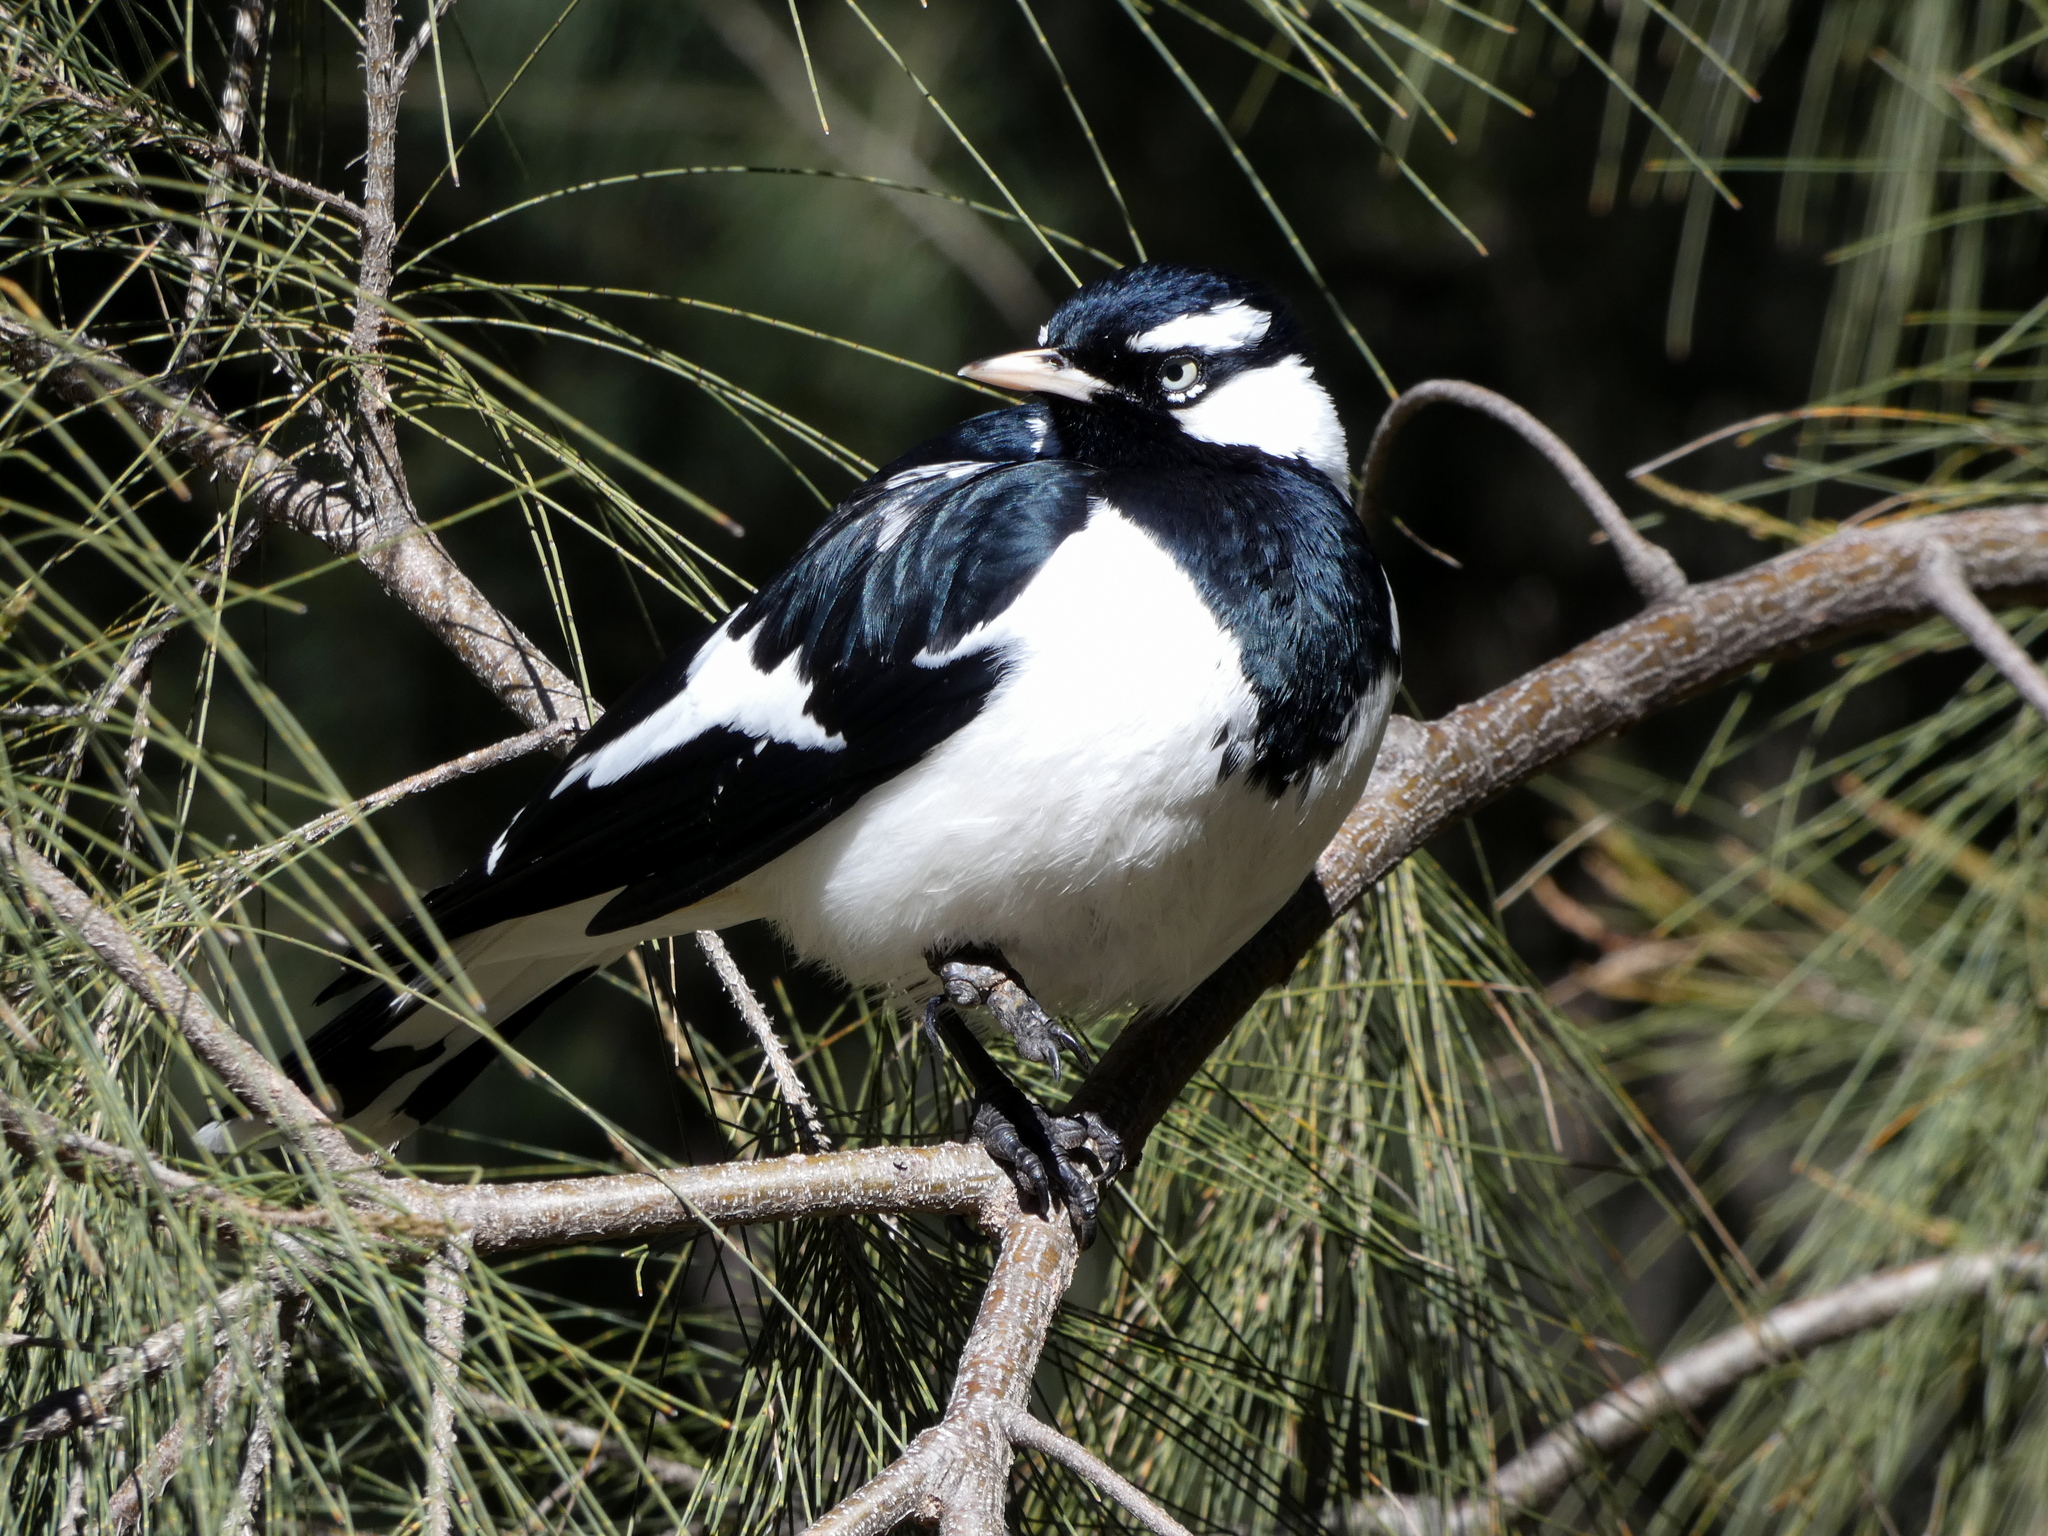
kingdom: Animalia
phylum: Chordata
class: Aves
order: Passeriformes
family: Monarchidae
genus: Grallina
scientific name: Grallina cyanoleuca
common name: Magpie-lark
